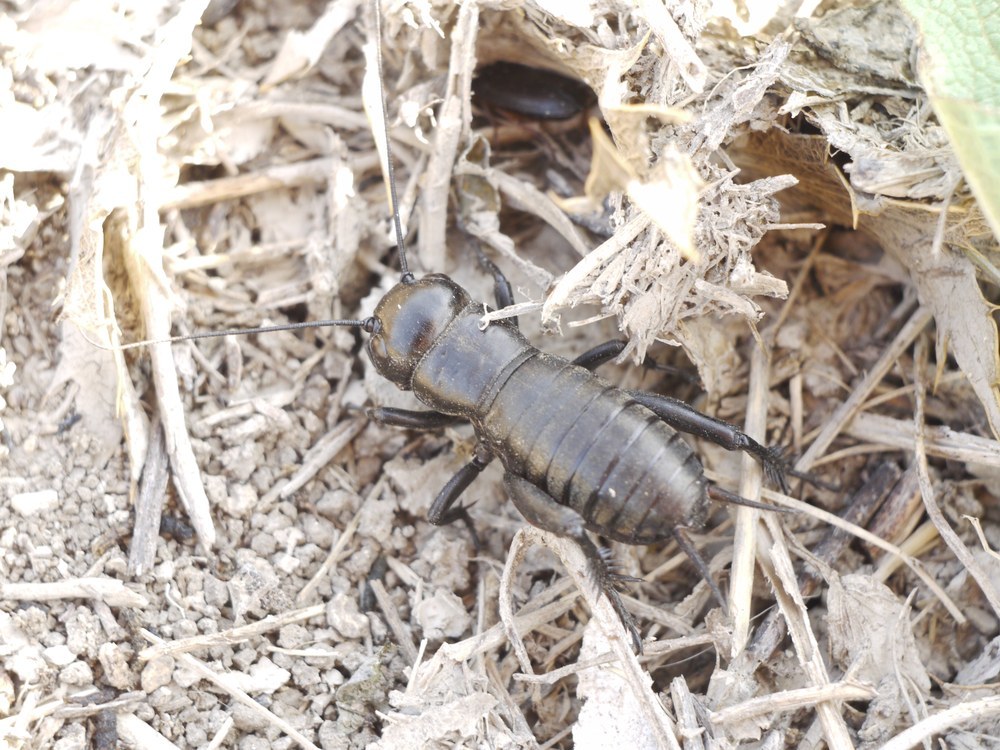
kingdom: Animalia
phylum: Arthropoda
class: Insecta
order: Orthoptera
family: Gryllidae
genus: Gryllus
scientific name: Gryllus campestris
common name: Field cricket
